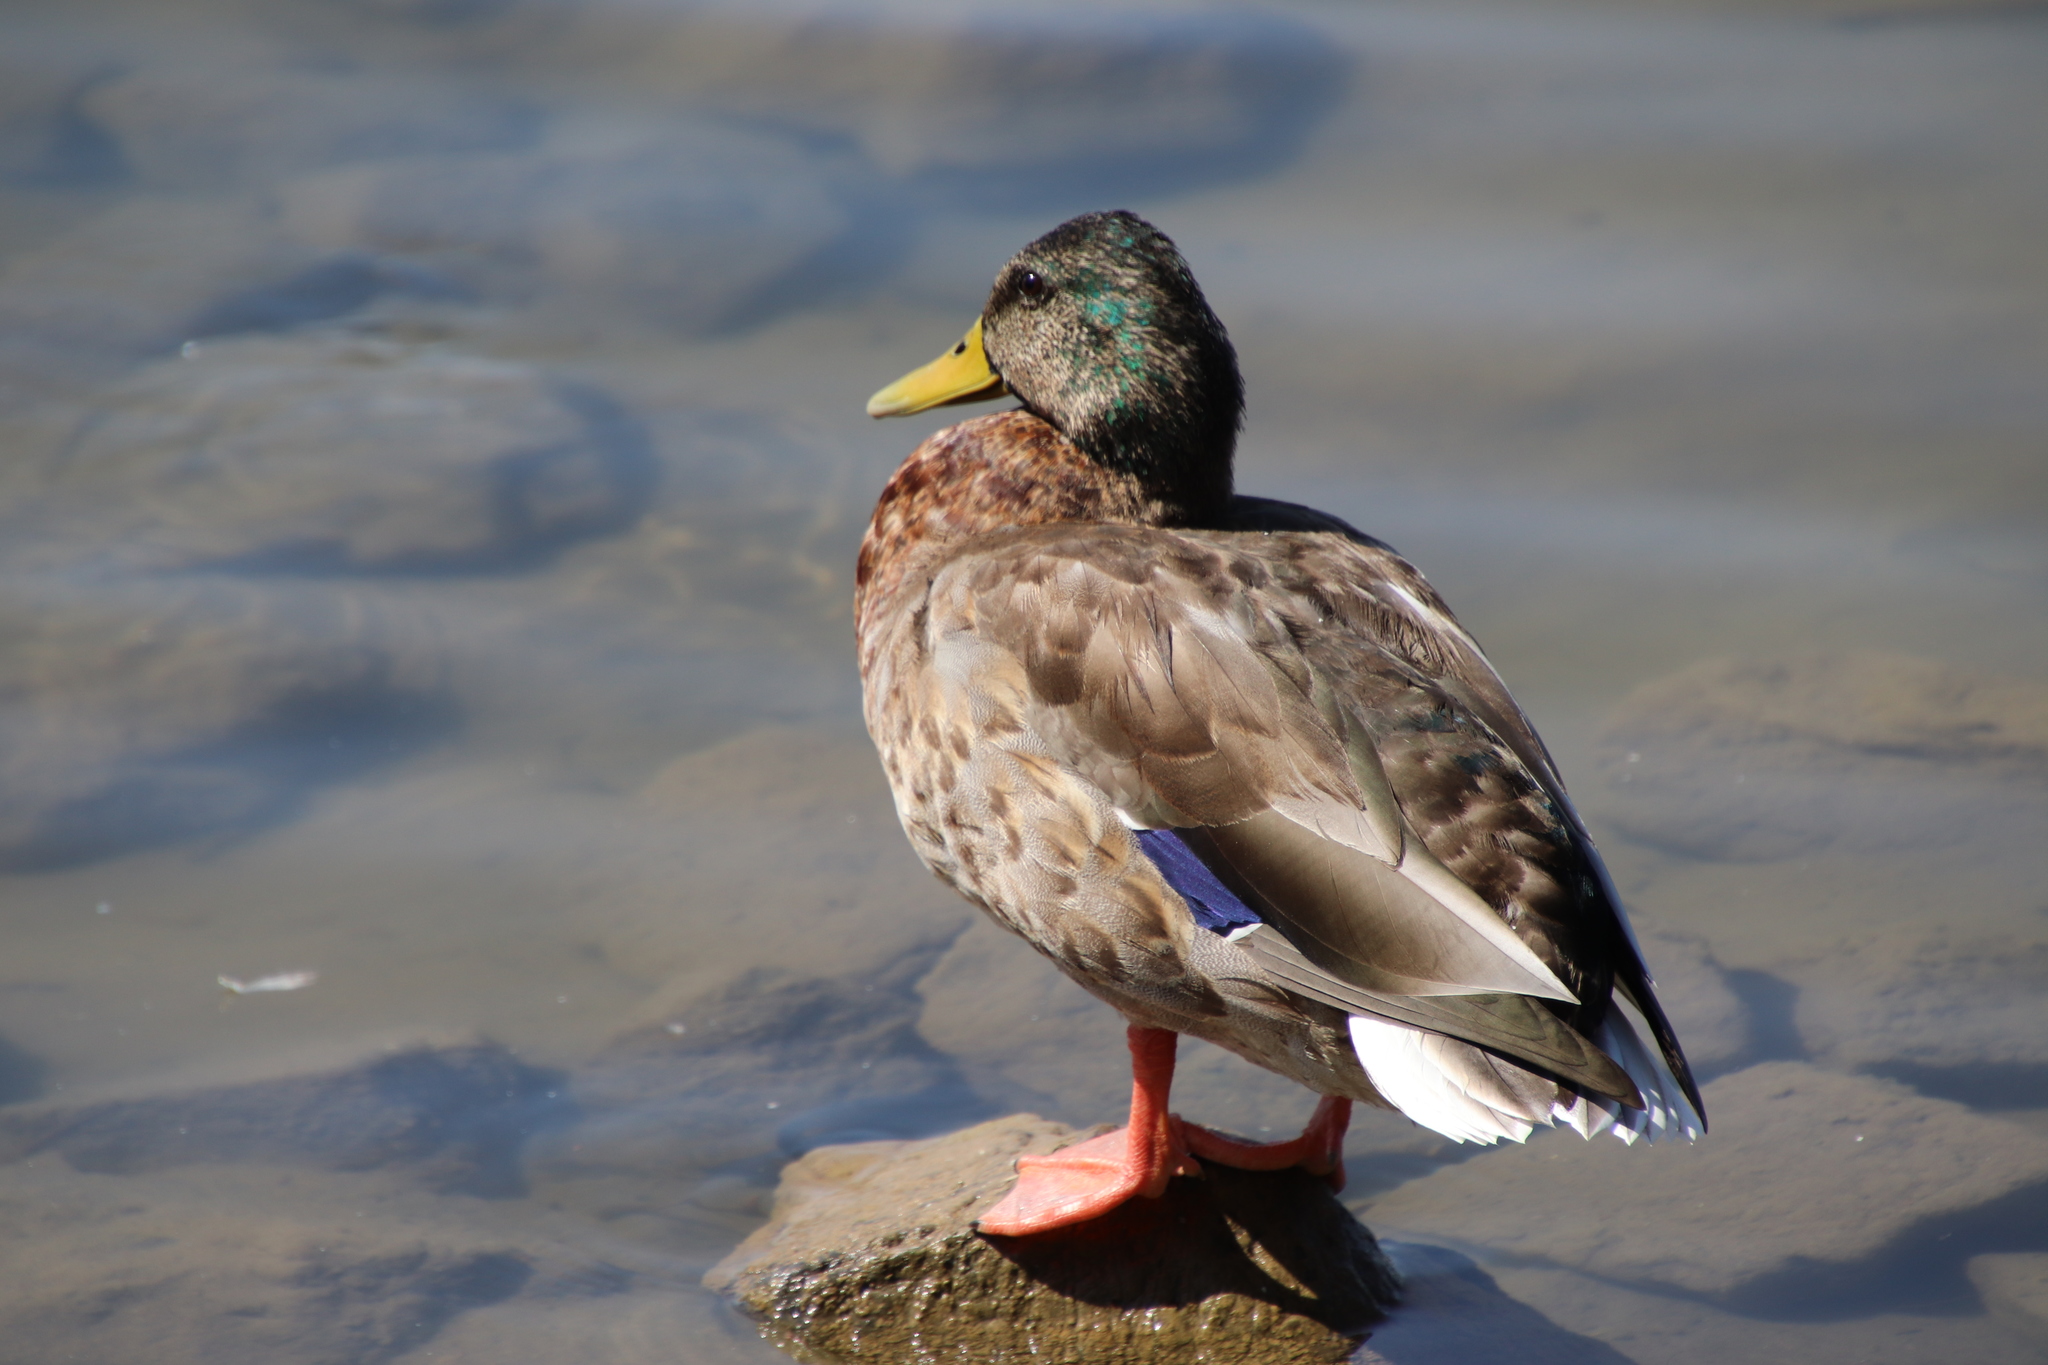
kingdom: Animalia
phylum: Chordata
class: Aves
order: Anseriformes
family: Anatidae
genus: Anas
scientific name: Anas platyrhynchos
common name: Mallard
